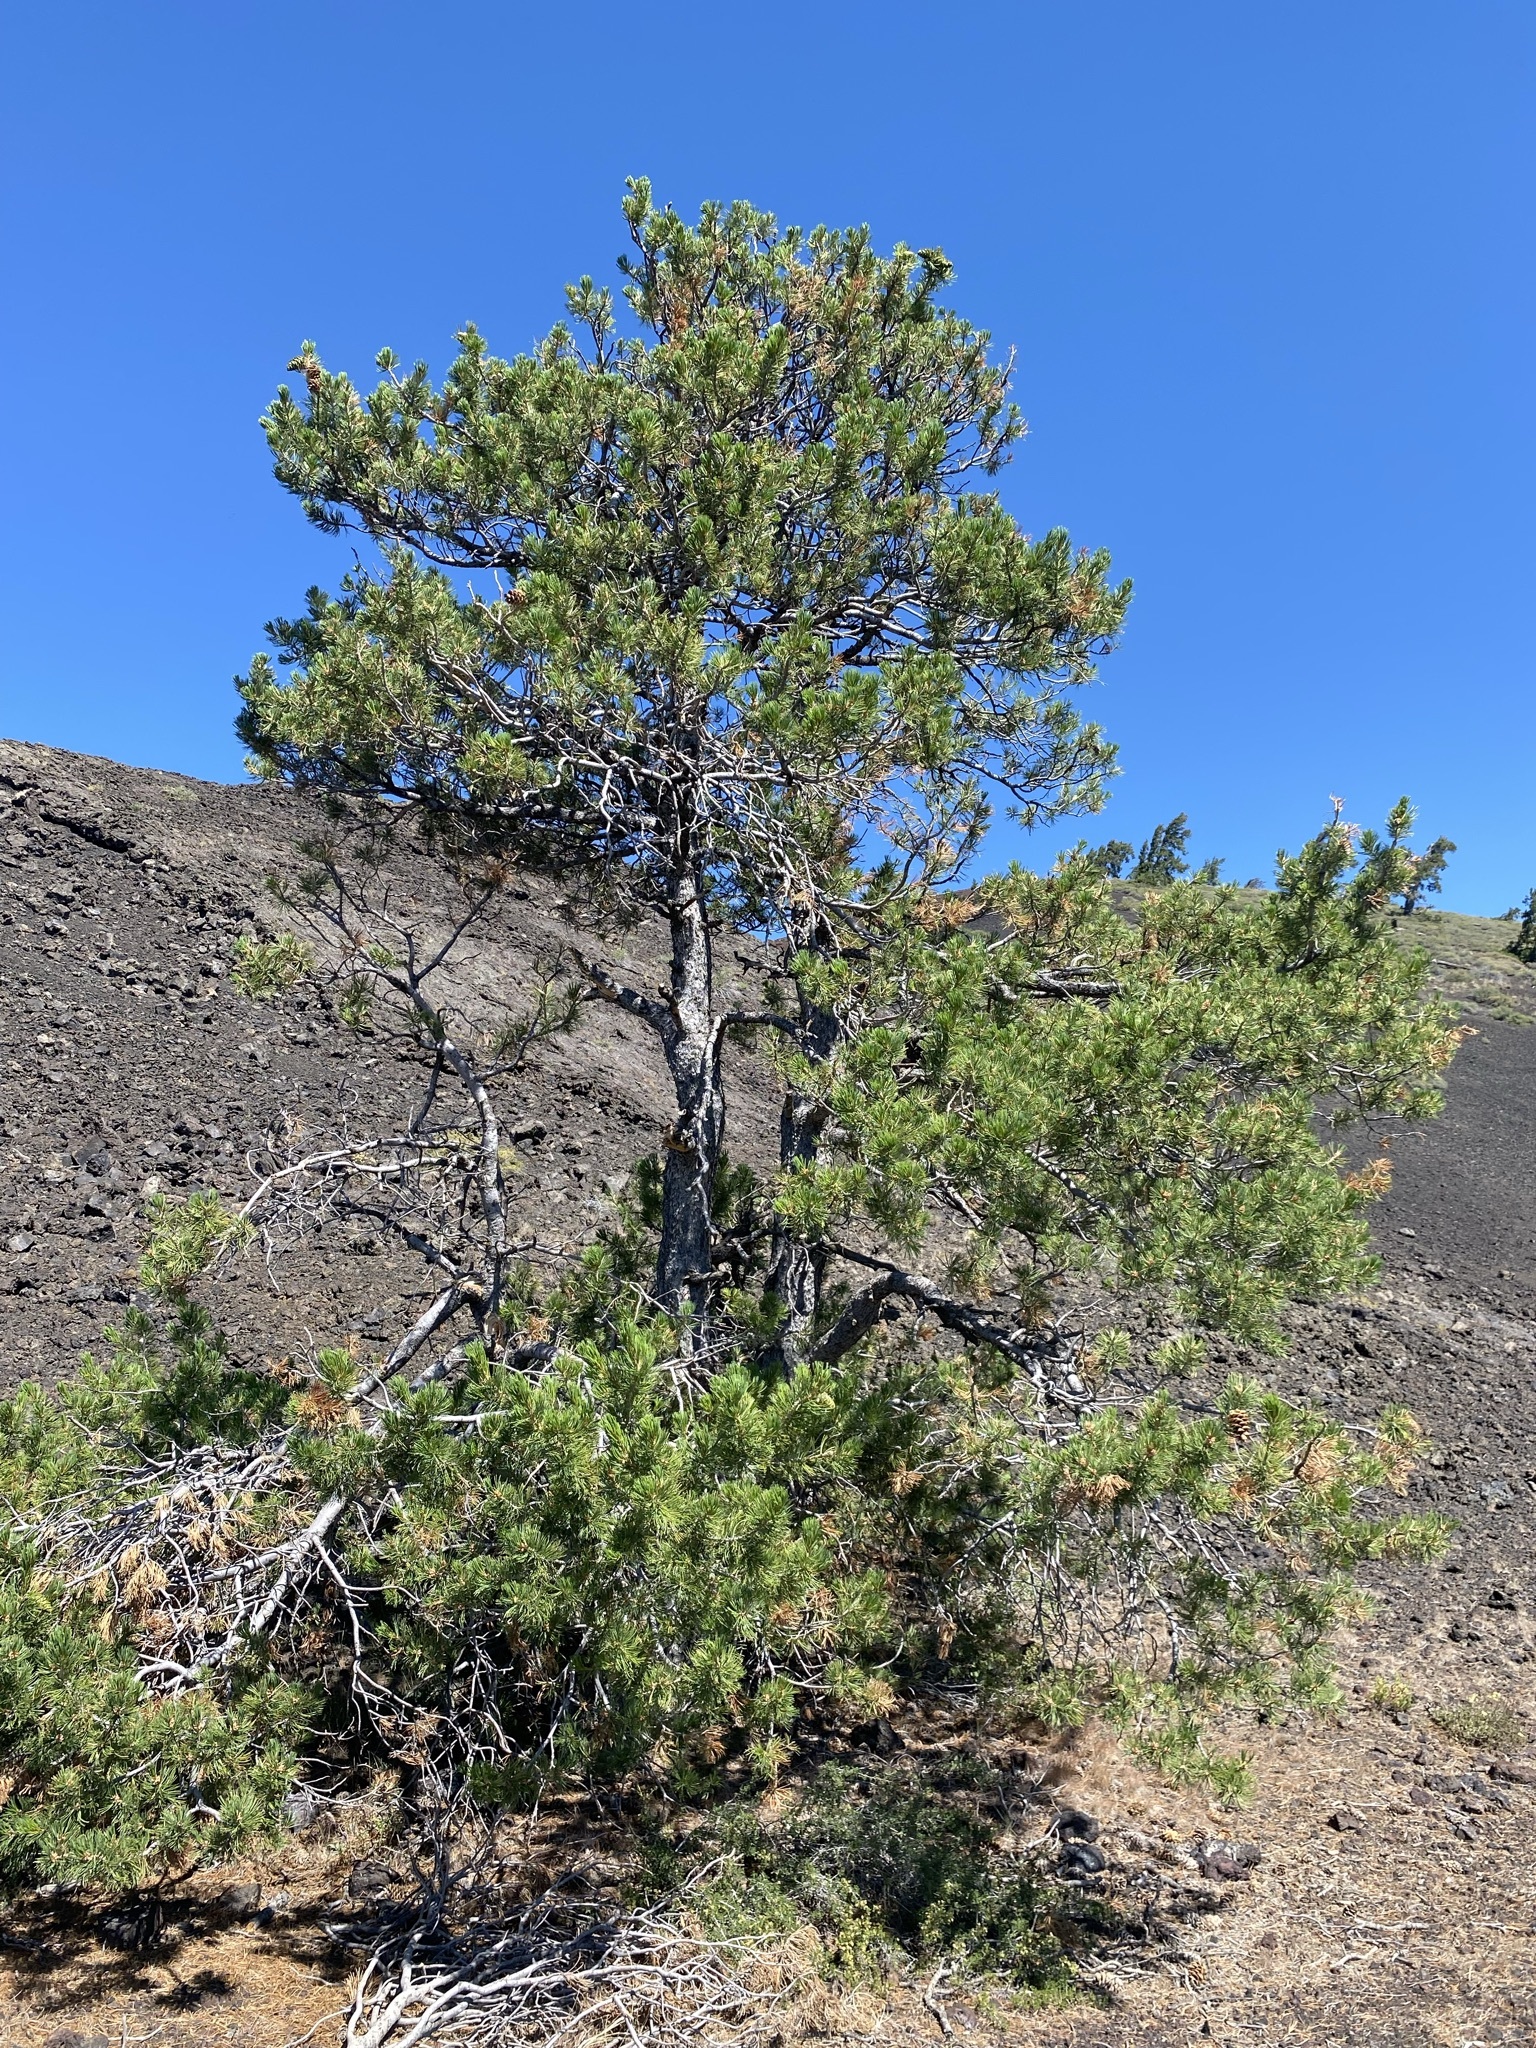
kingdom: Plantae
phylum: Tracheophyta
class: Pinopsida
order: Pinales
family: Pinaceae
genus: Pinus
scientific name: Pinus flexilis
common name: Limber pine
